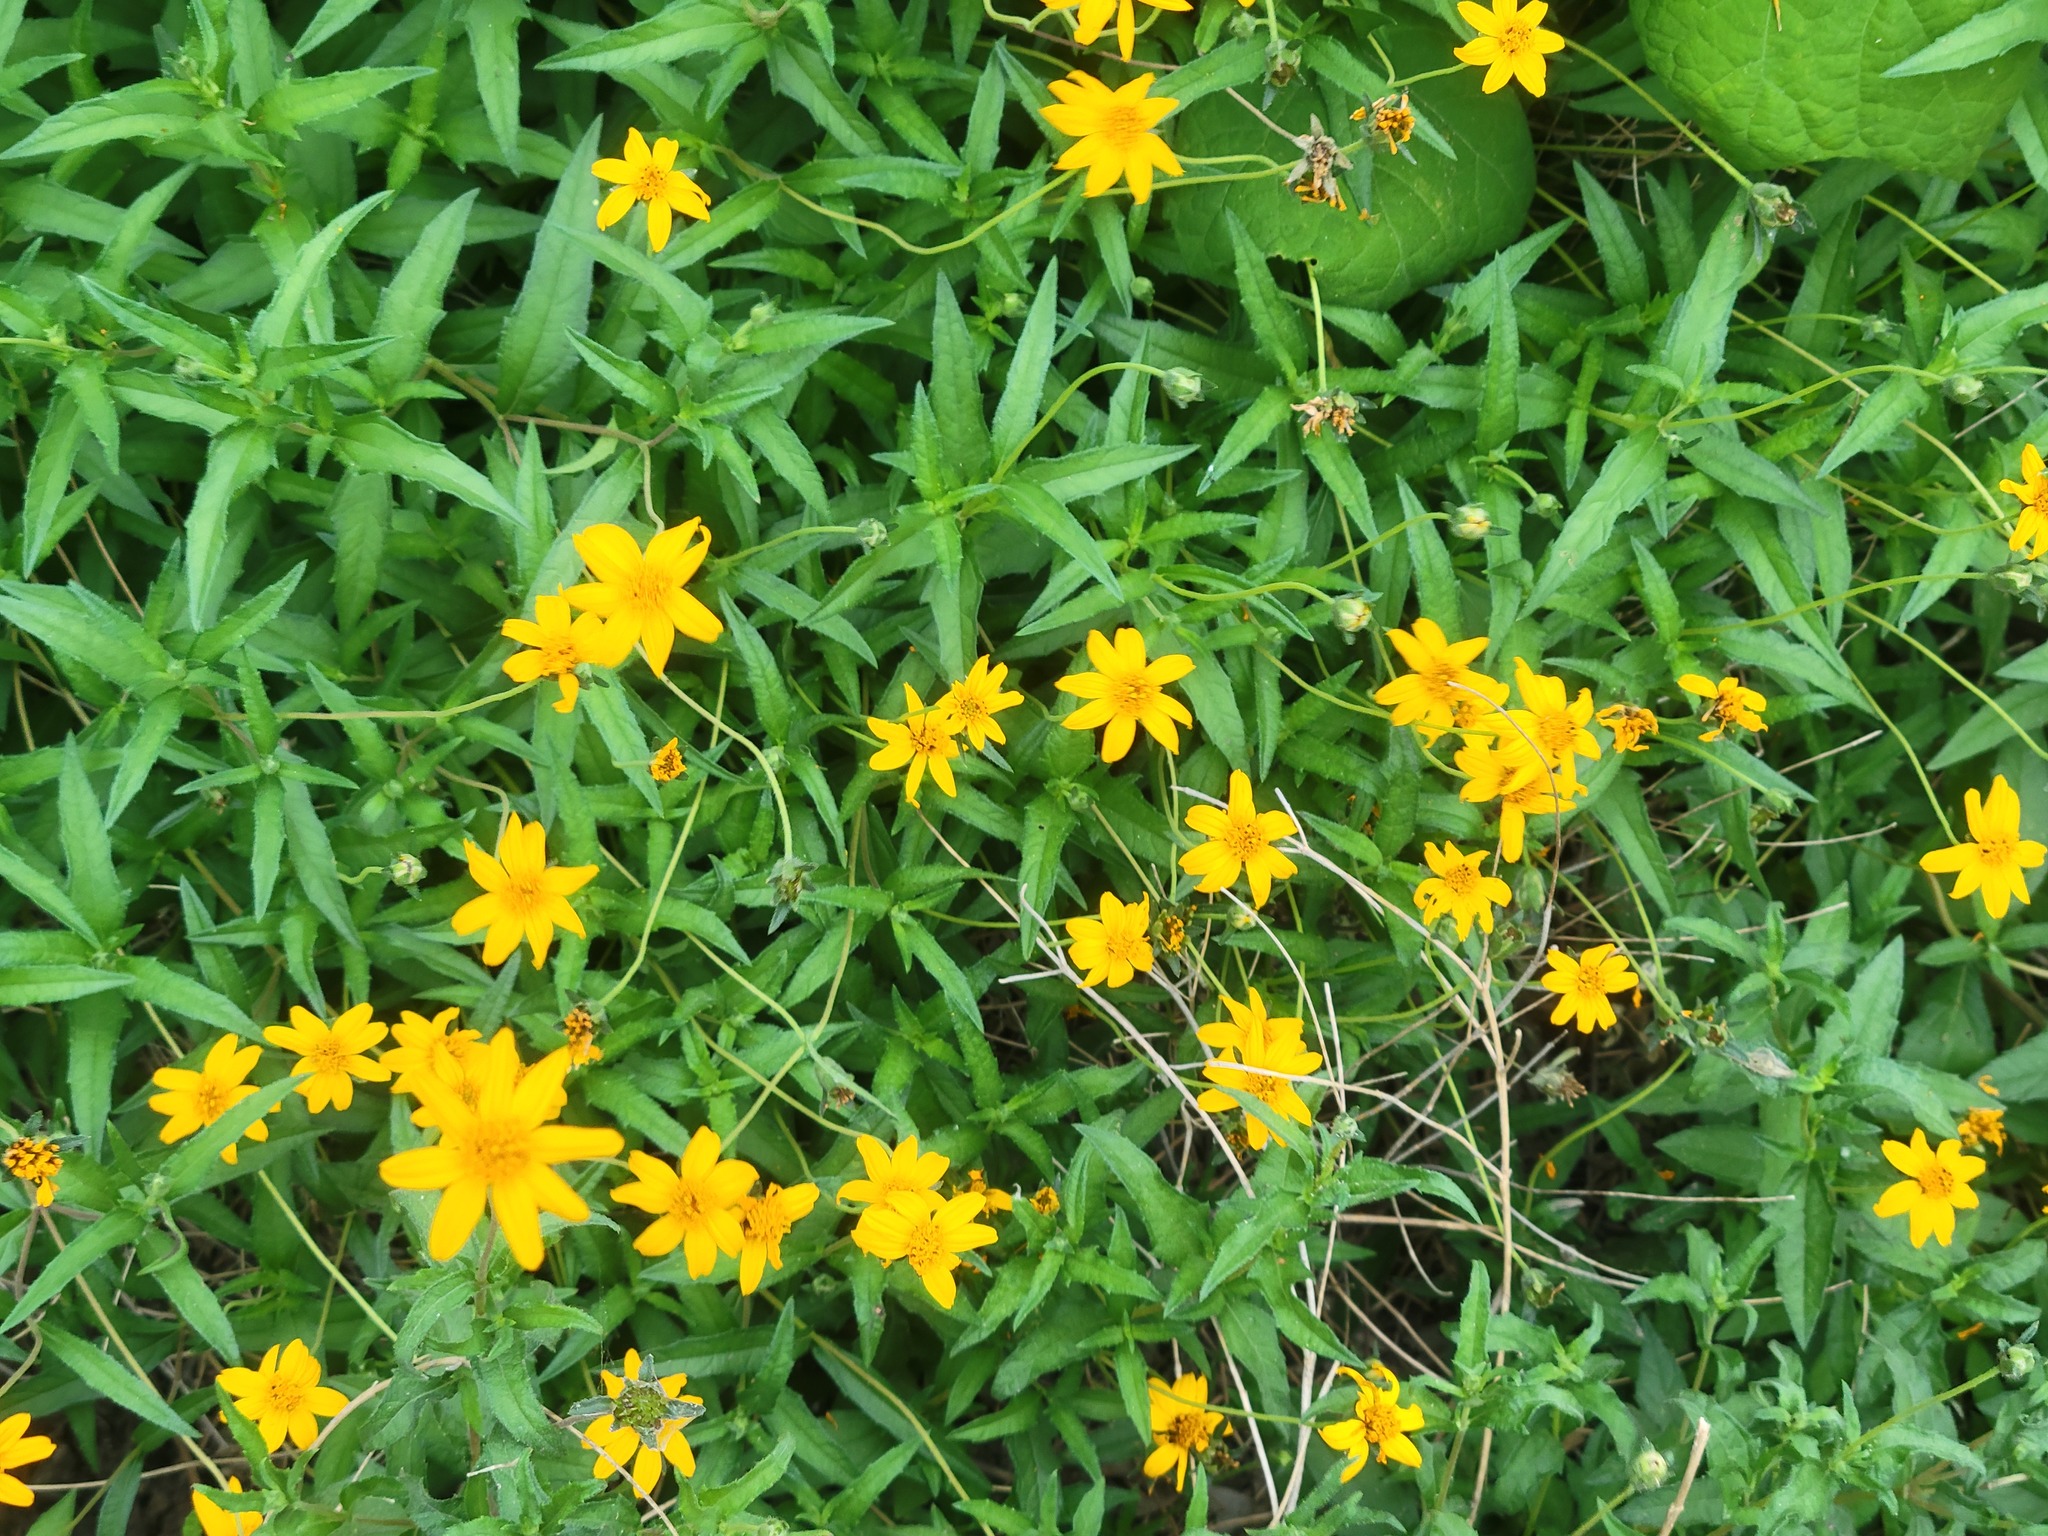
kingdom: Plantae
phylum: Tracheophyta
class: Magnoliopsida
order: Asterales
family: Asteraceae
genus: Wedelia
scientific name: Wedelia acapulcensis
